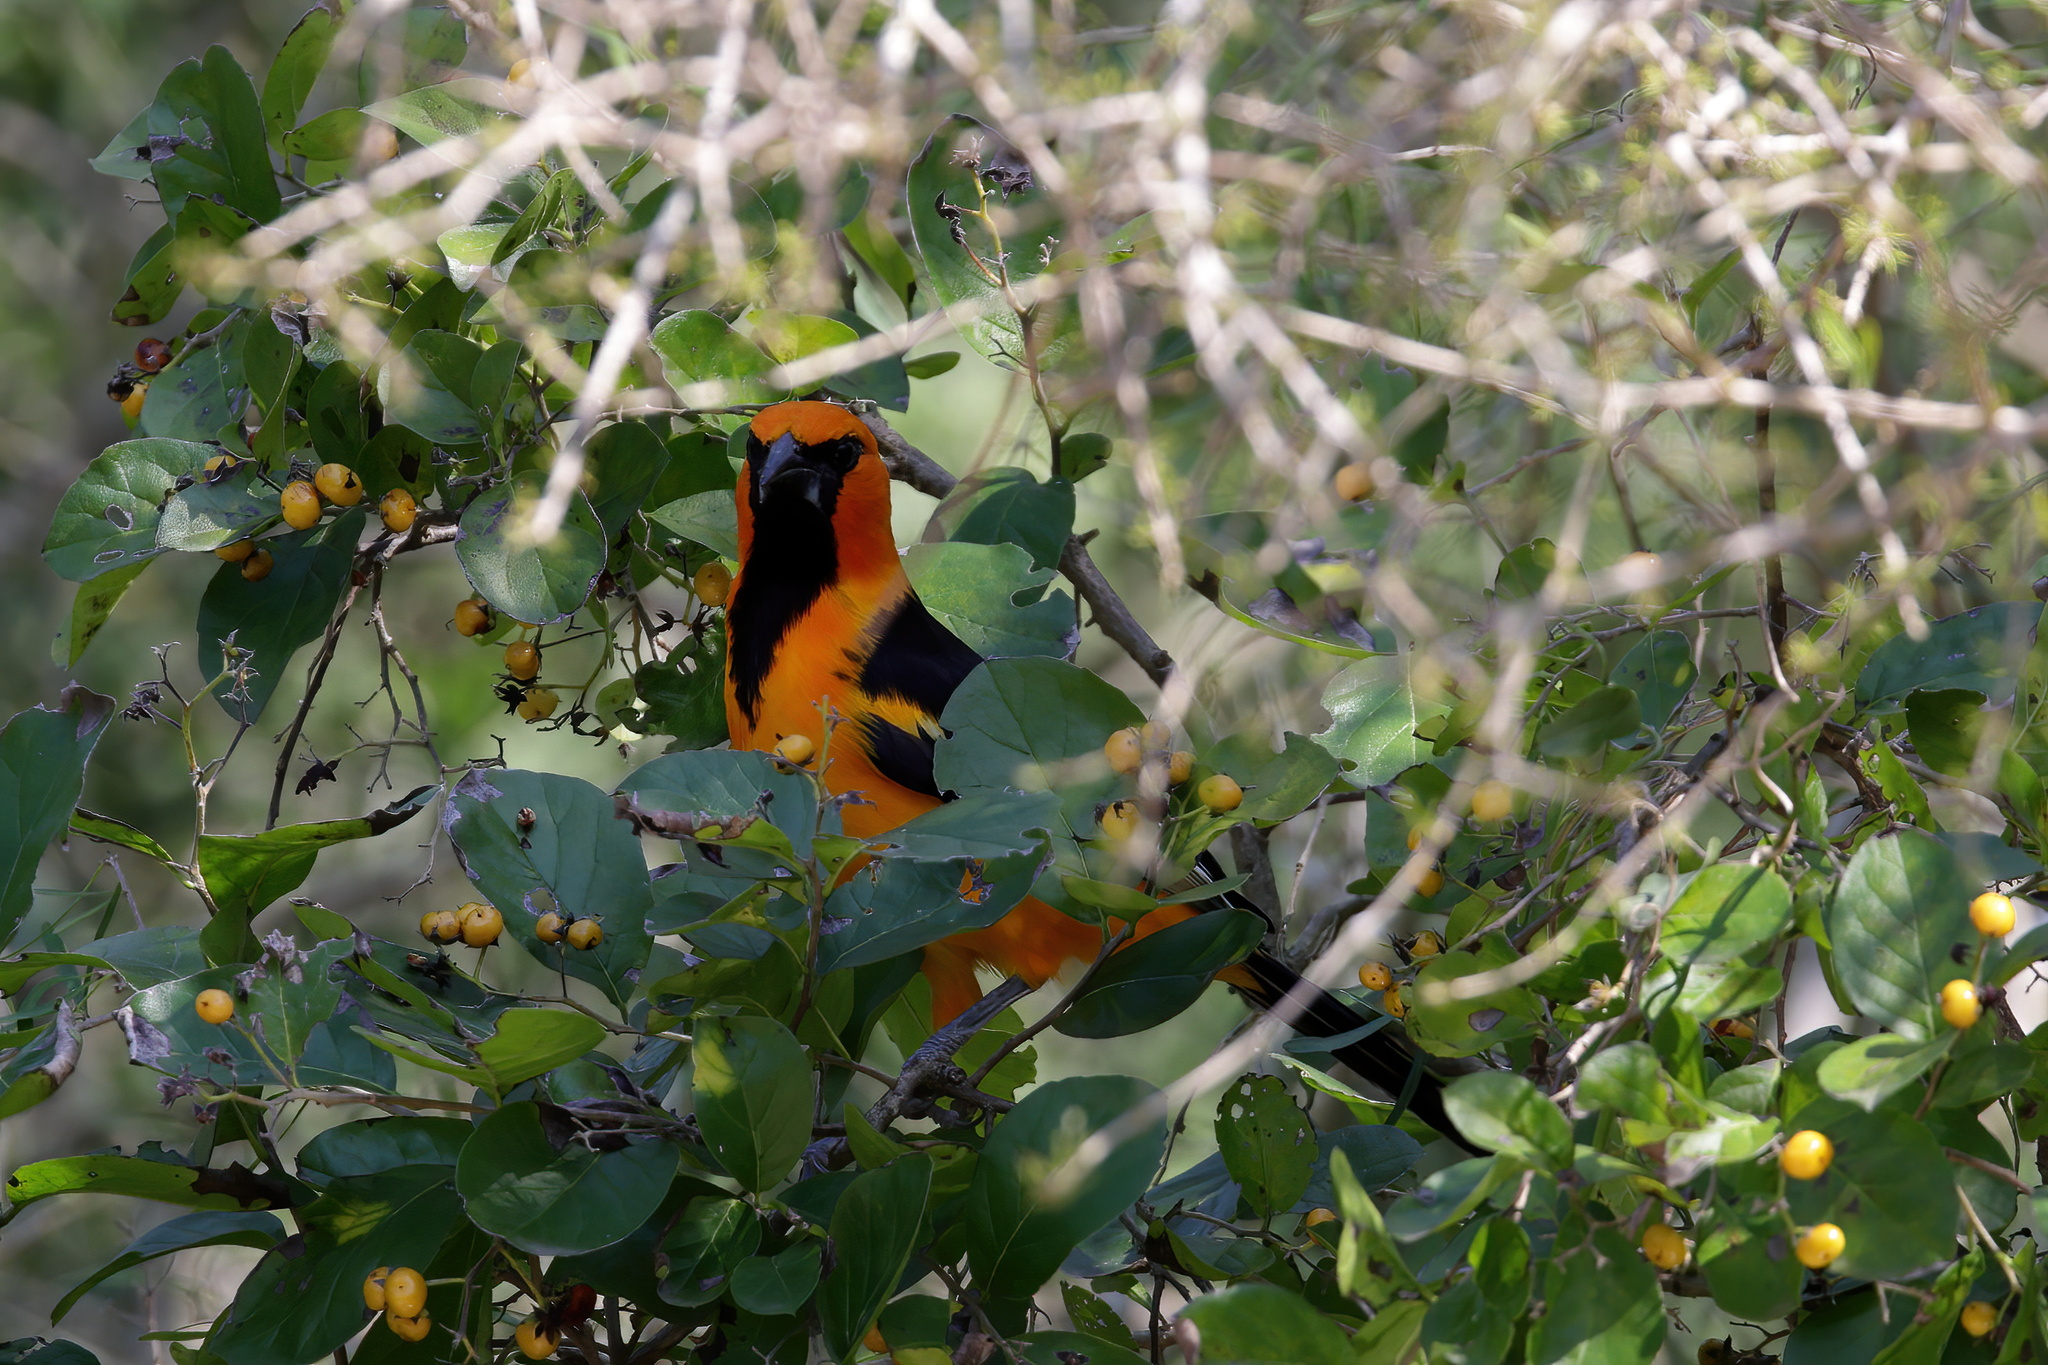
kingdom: Animalia
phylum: Chordata
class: Aves
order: Passeriformes
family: Icteridae
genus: Icterus
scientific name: Icterus gularis
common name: Altamira oriole
